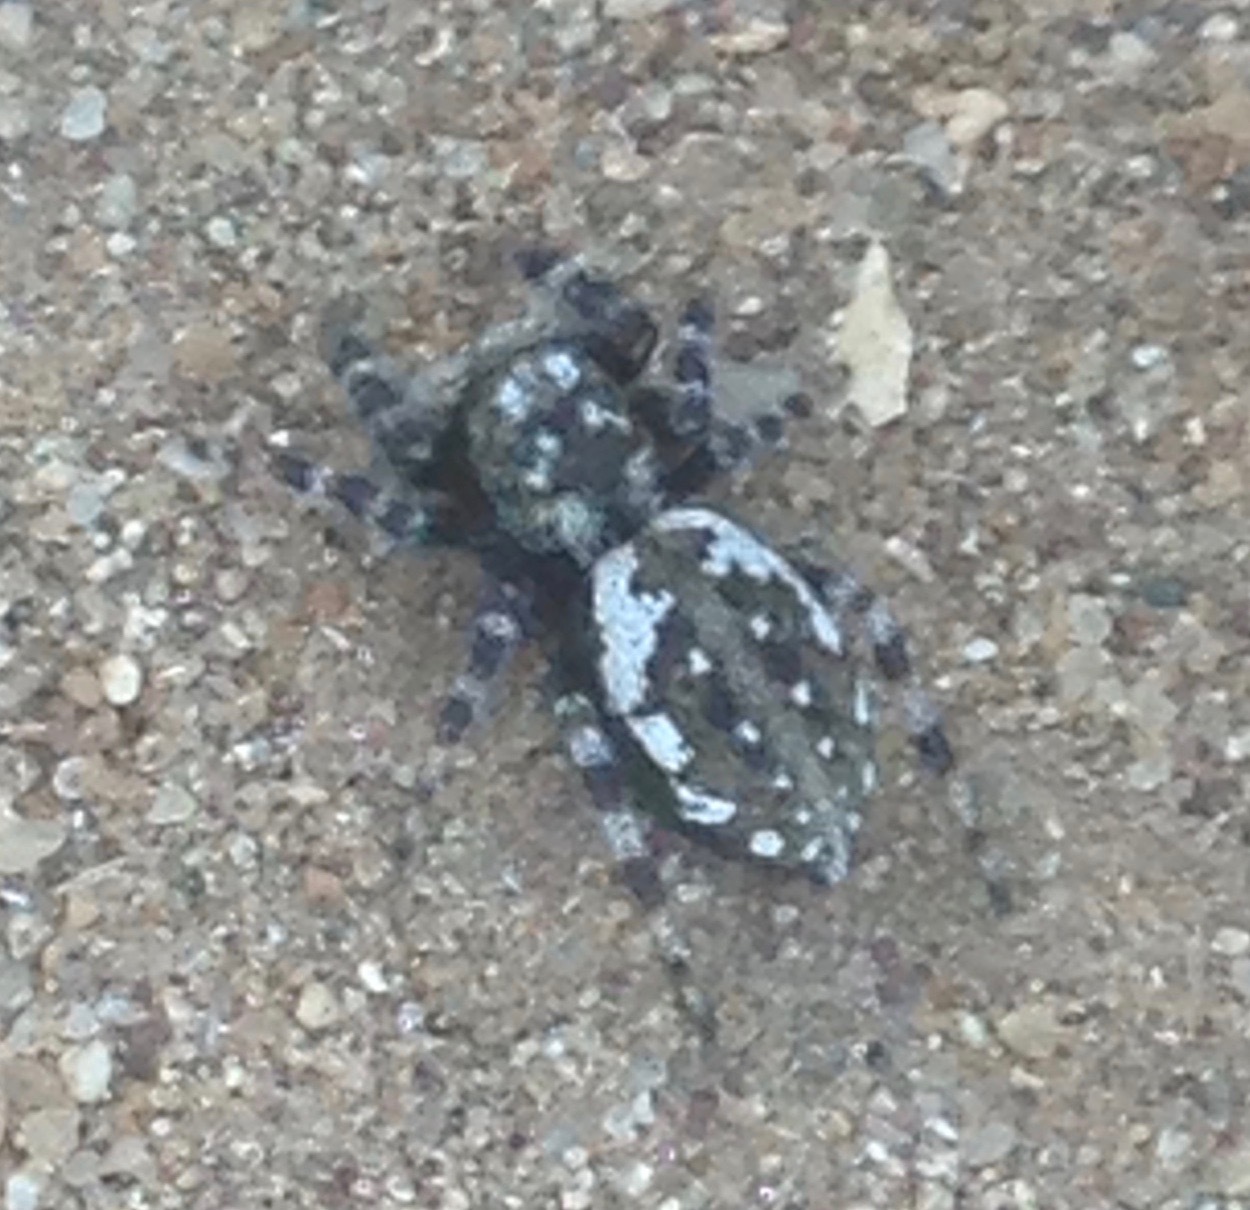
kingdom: Animalia
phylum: Arthropoda
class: Arachnida
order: Araneae
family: Salticidae
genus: Terralonus
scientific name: Terralonus californicus
